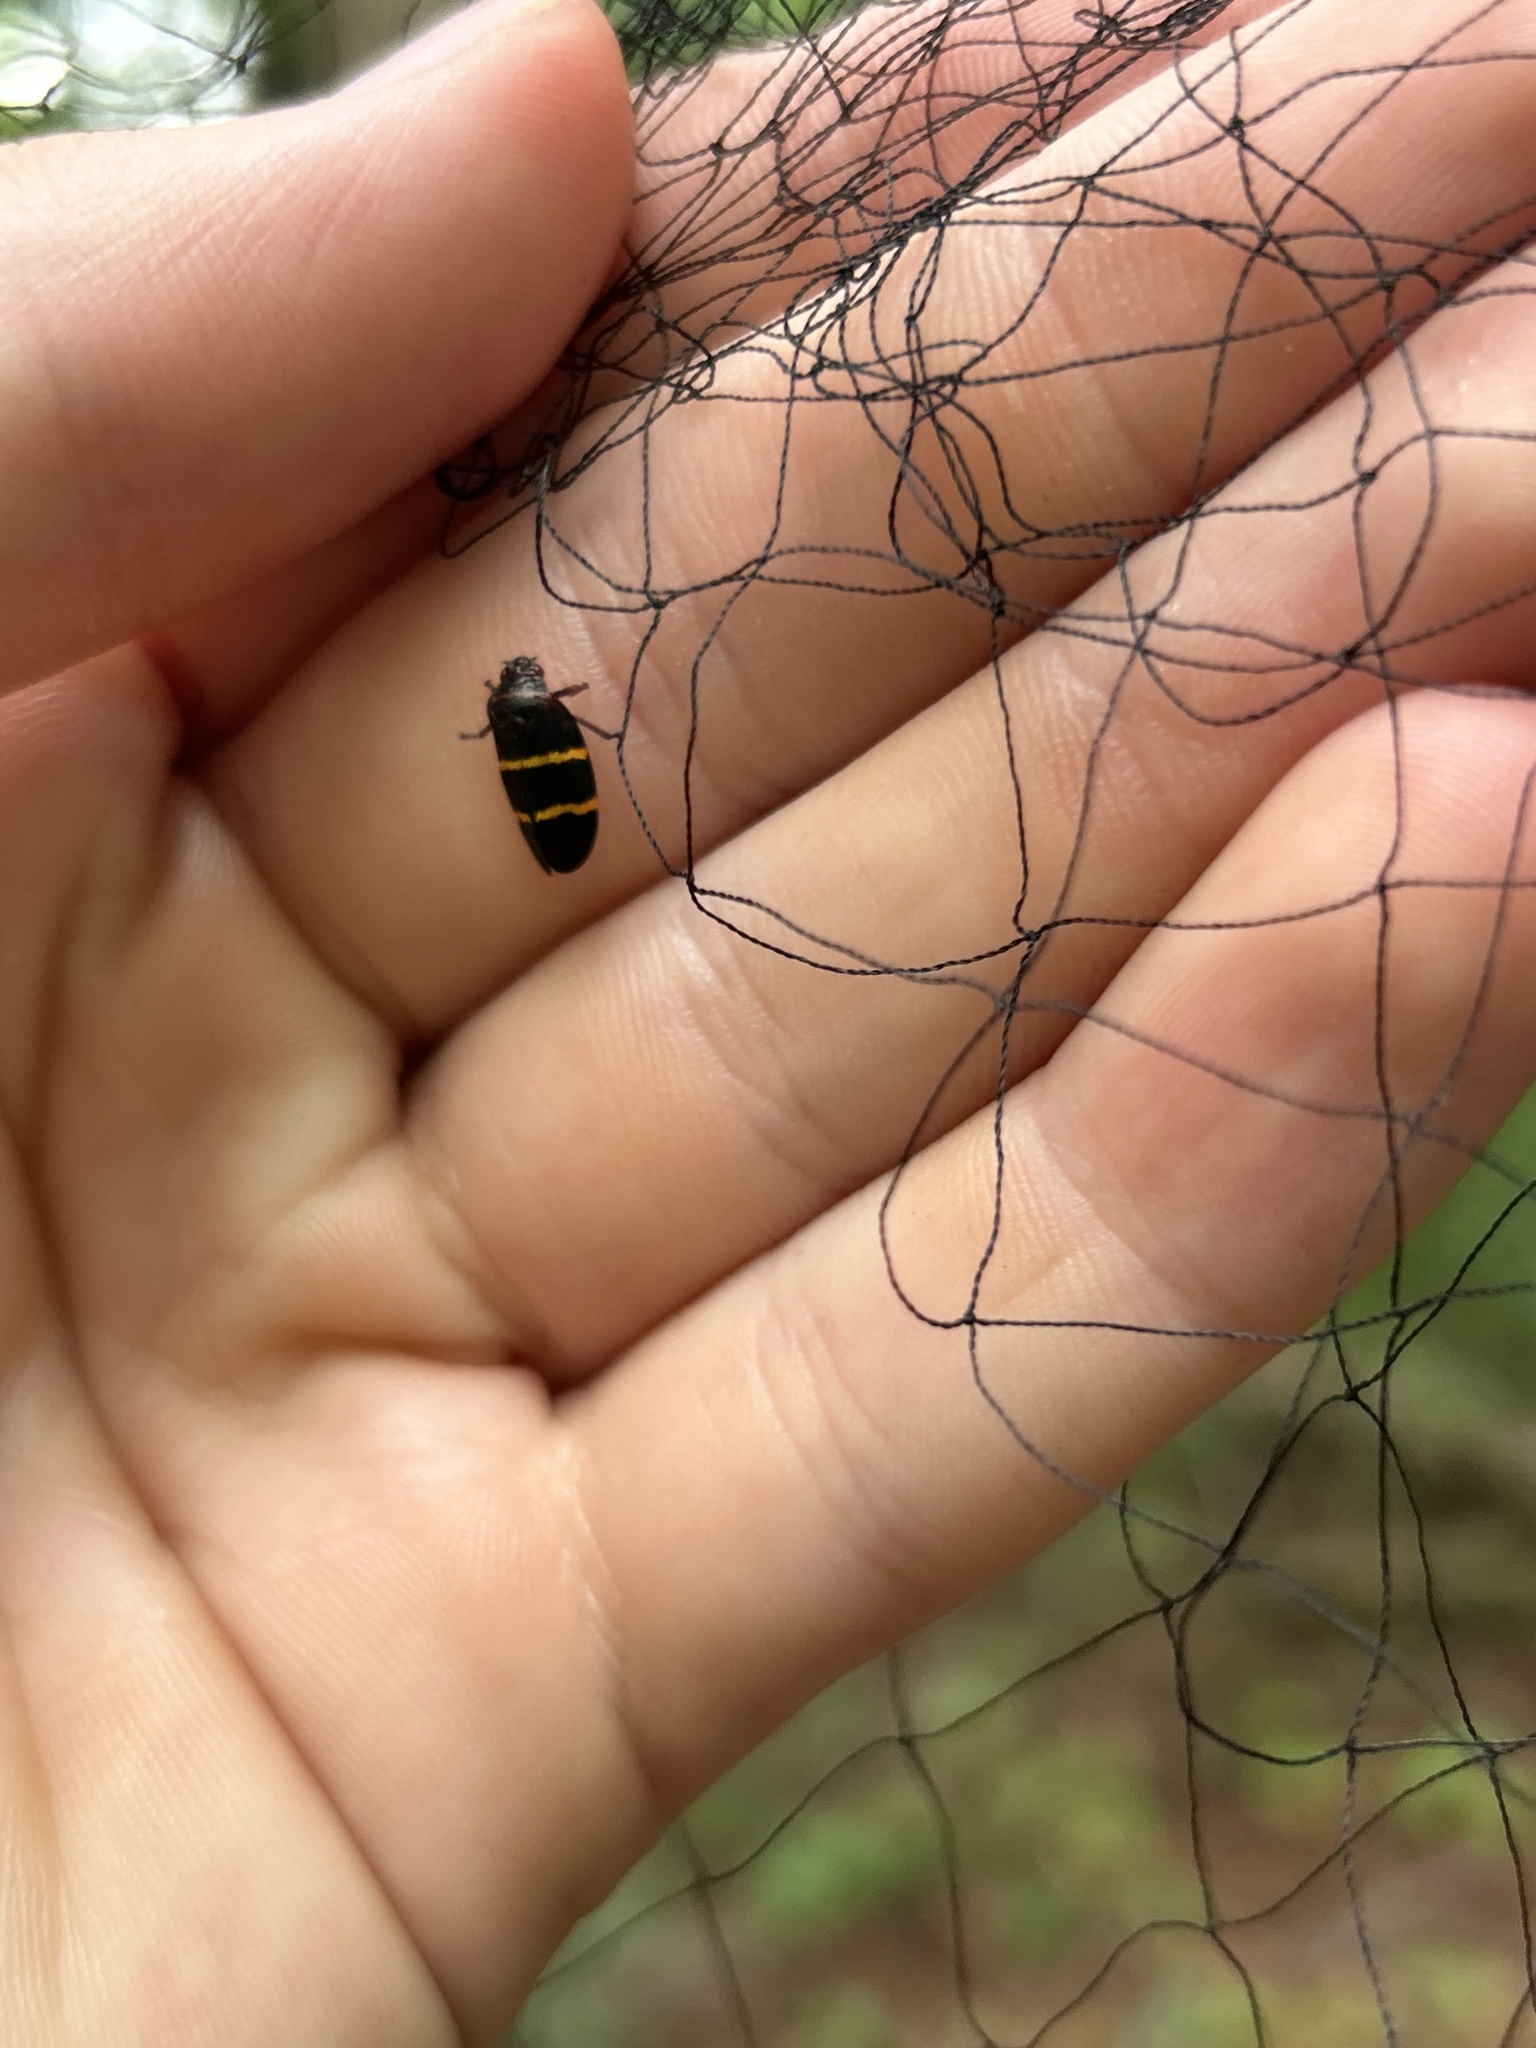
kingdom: Animalia
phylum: Arthropoda
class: Insecta
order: Hemiptera
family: Cercopidae
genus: Prosapia
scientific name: Prosapia bicincta
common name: Twolined spittlebug
